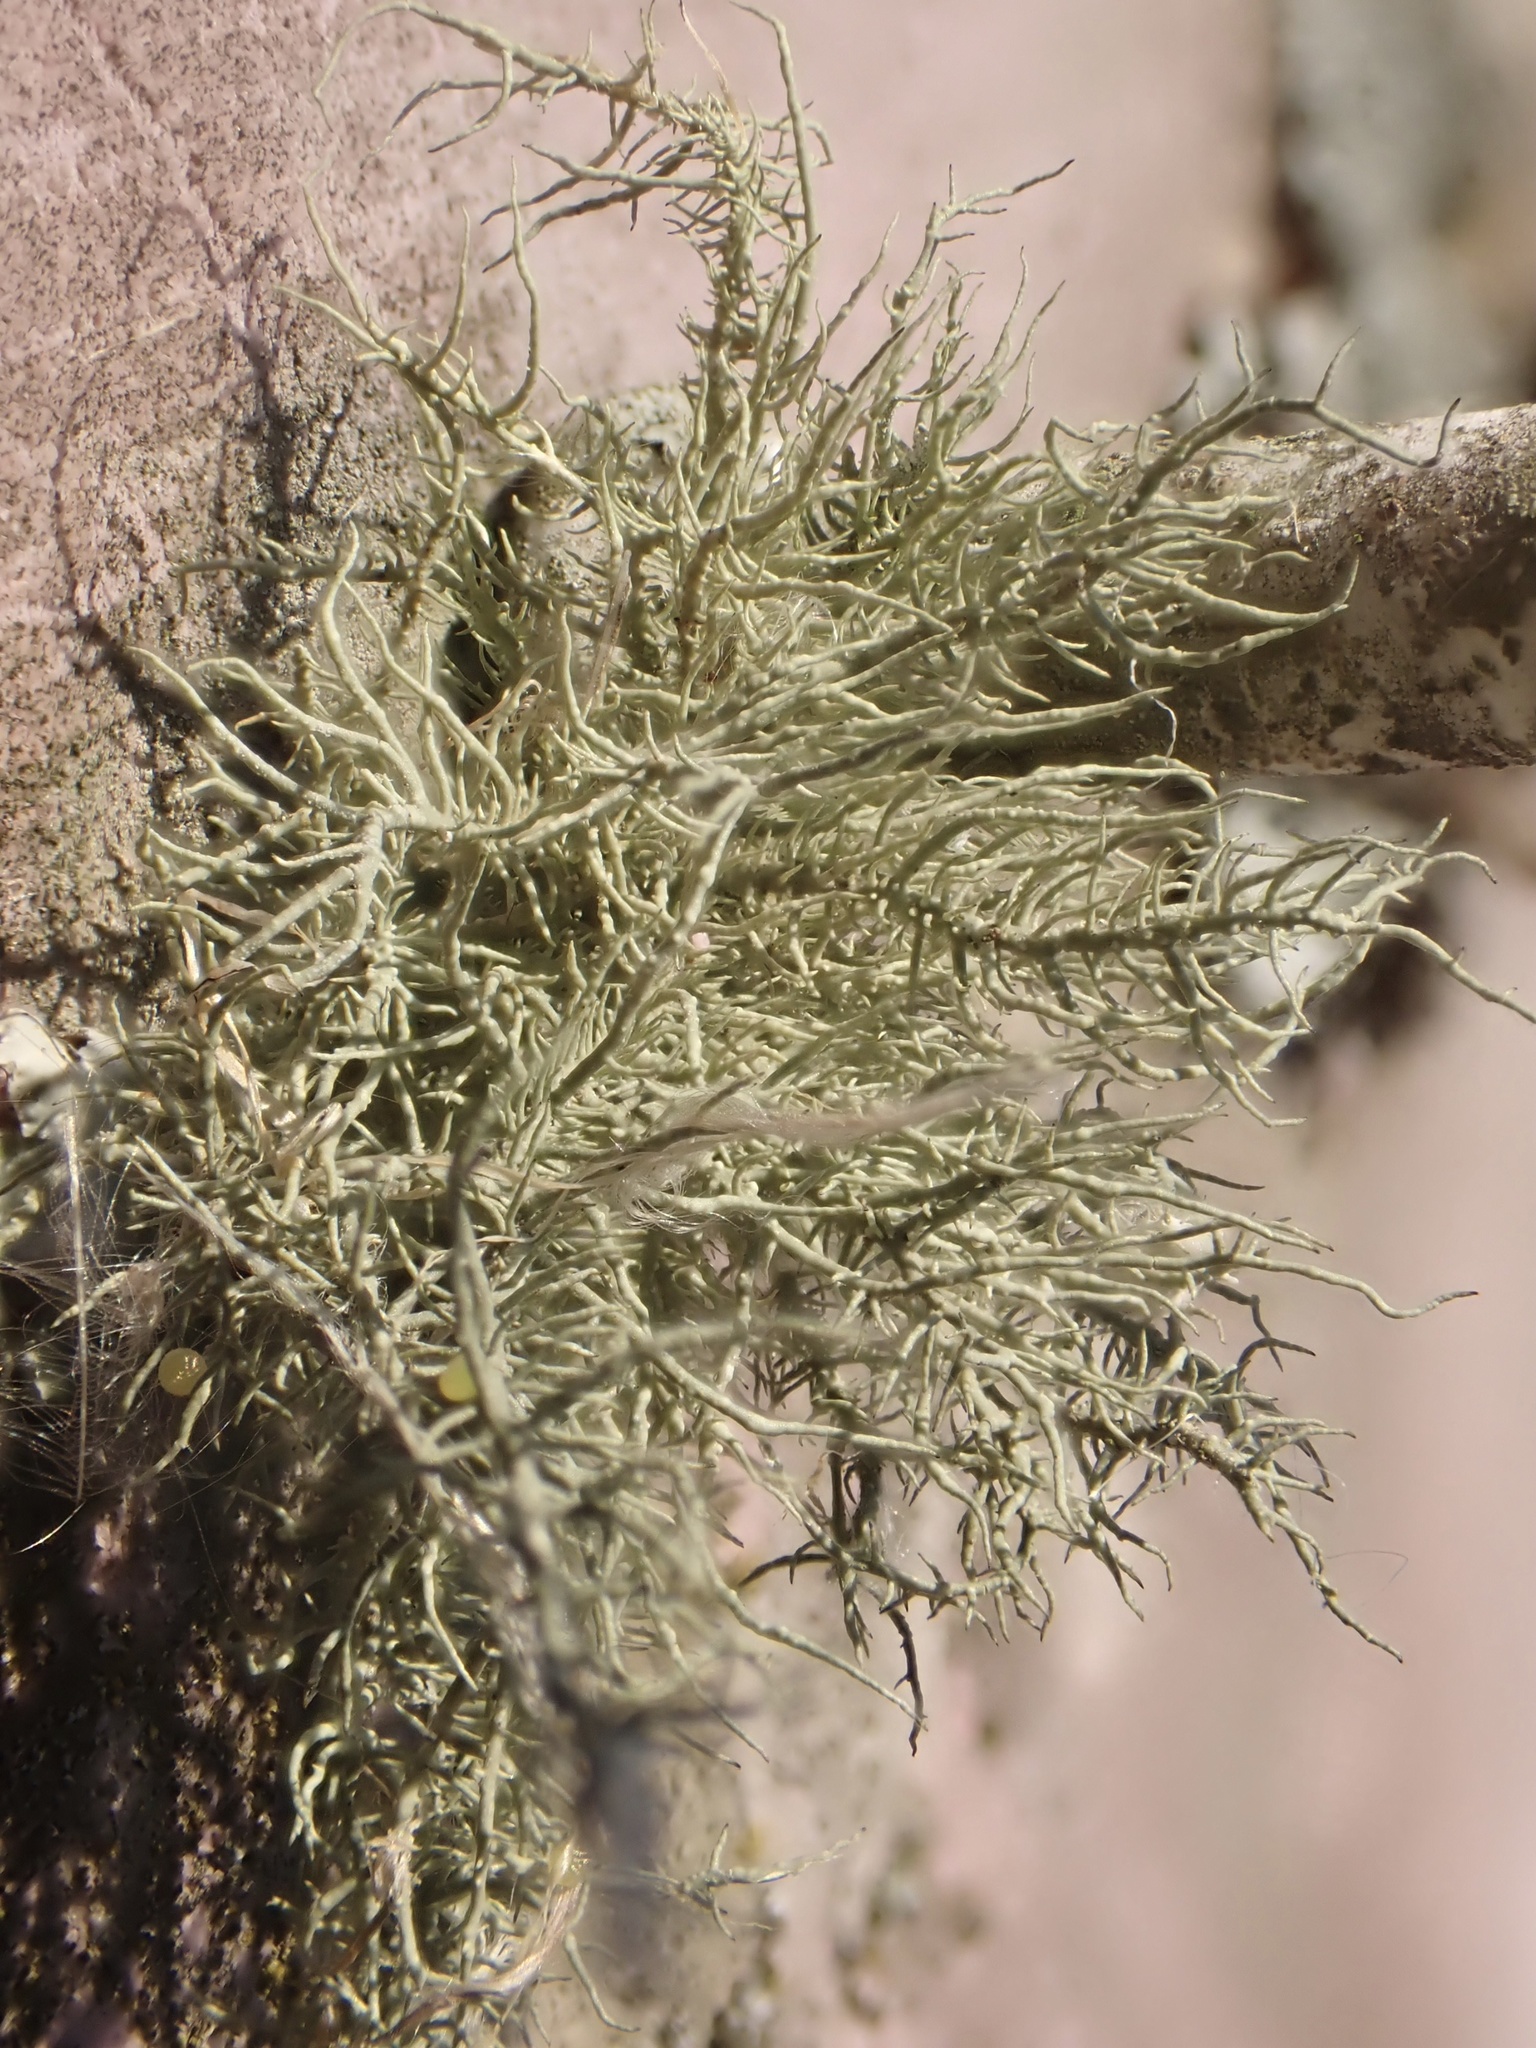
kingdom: Fungi
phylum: Ascomycota
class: Lecanoromycetes
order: Lecanorales
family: Parmeliaceae
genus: Usnea
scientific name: Usnea strigosa
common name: Bushy beard lichen
